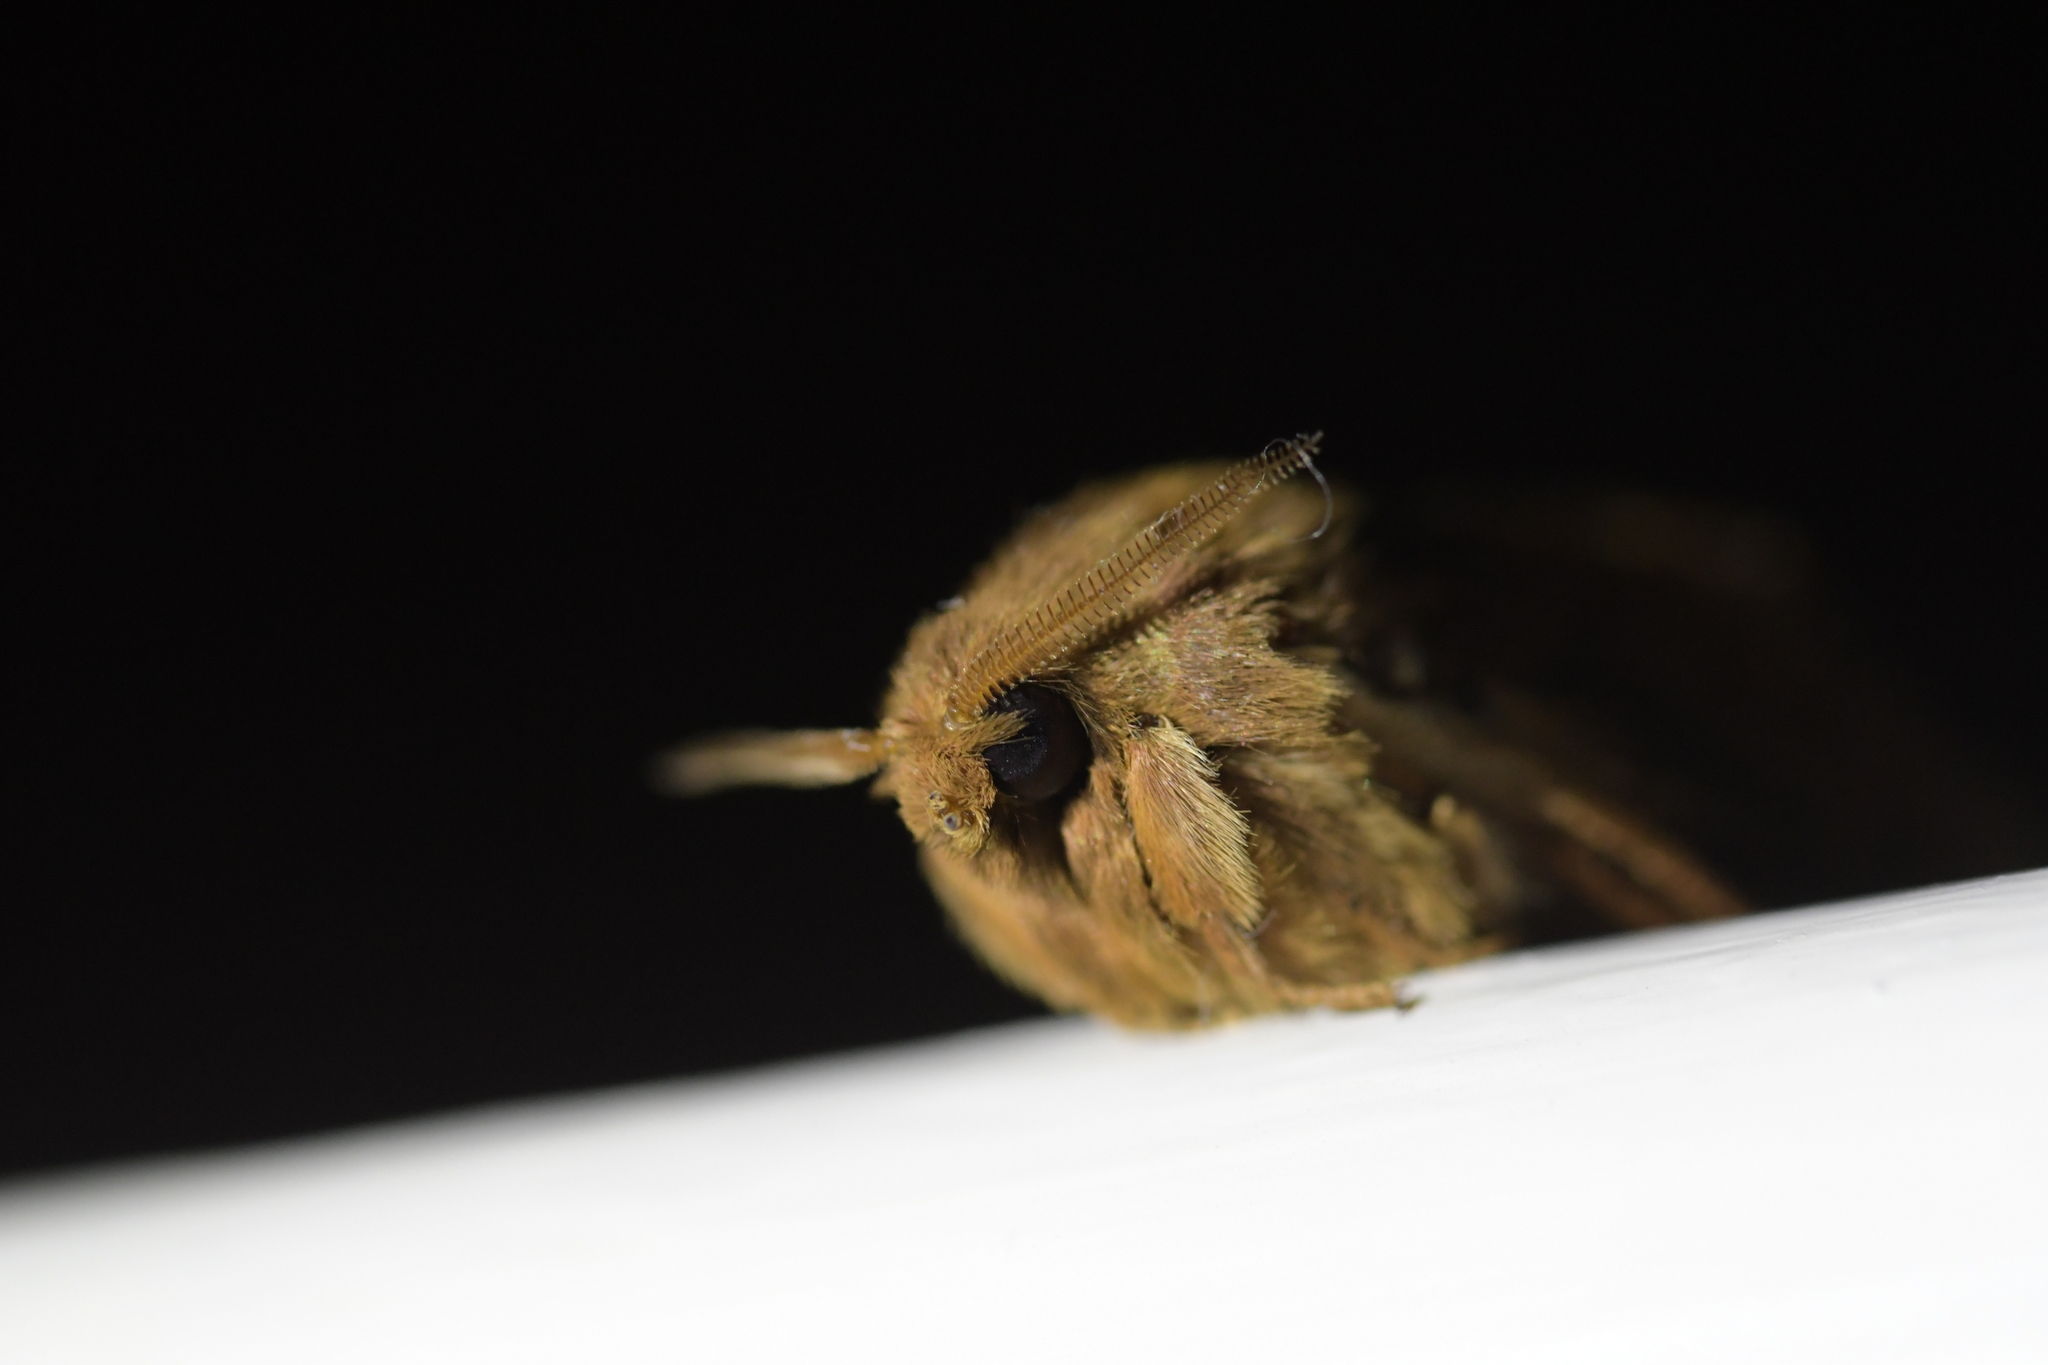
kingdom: Animalia
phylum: Arthropoda
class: Insecta
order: Lepidoptera
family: Hepialidae
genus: Wiseana
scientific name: Wiseana cervinata
